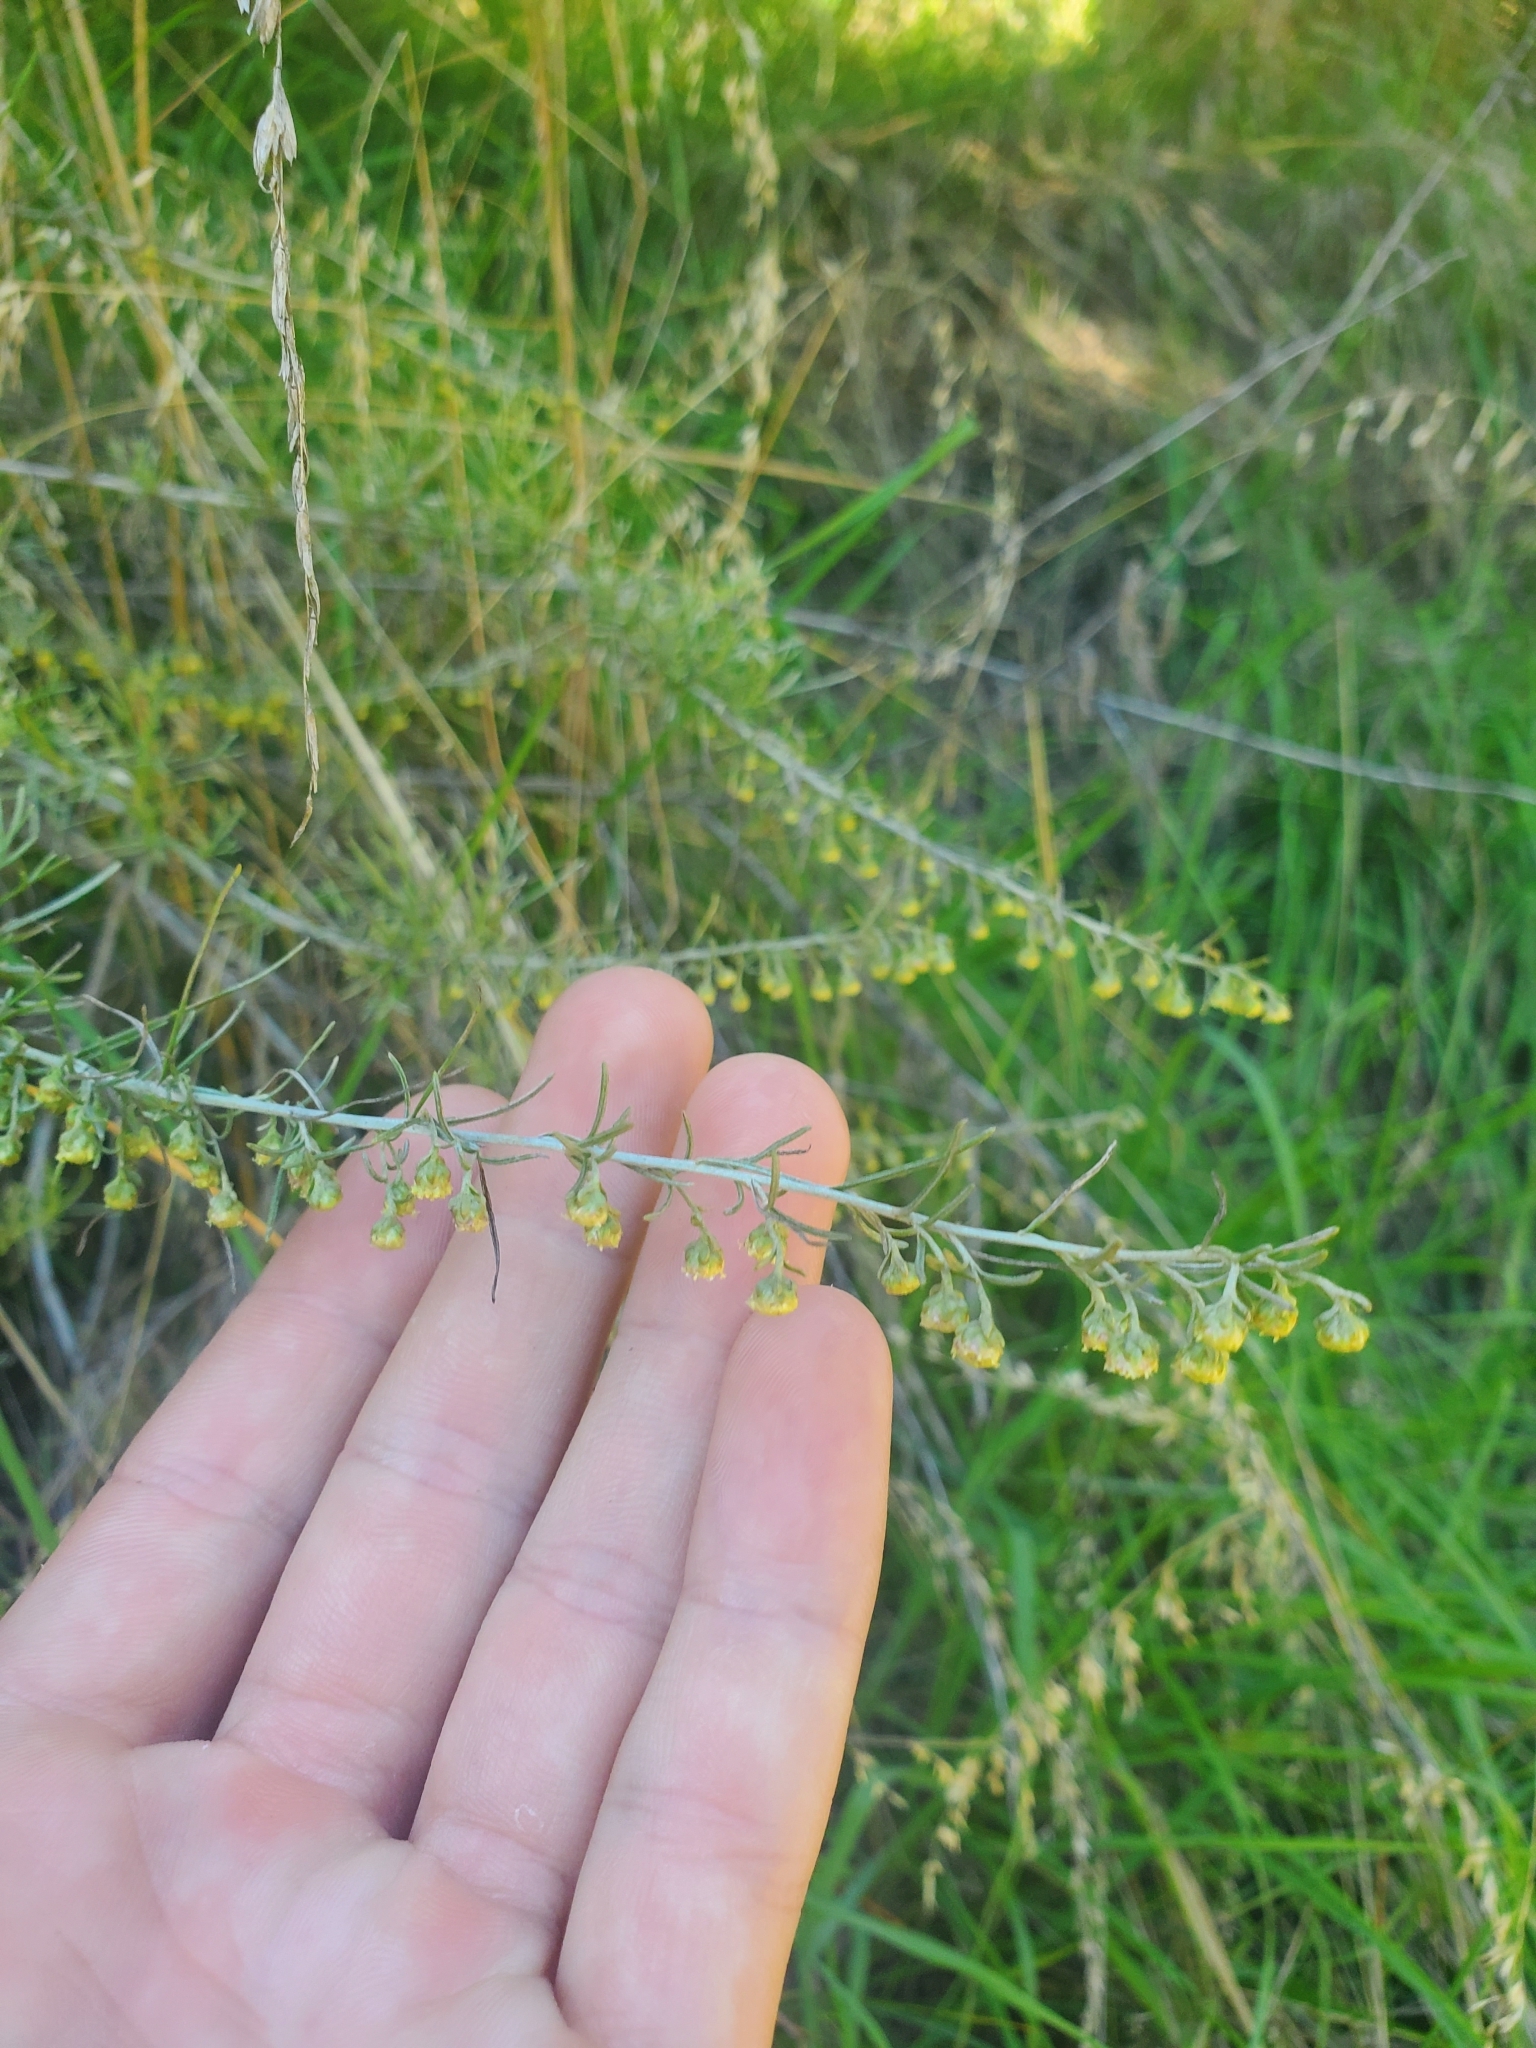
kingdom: Plantae
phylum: Tracheophyta
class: Magnoliopsida
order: Asterales
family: Asteraceae
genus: Artemisia
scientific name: Artemisia californica
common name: California sagebrush
